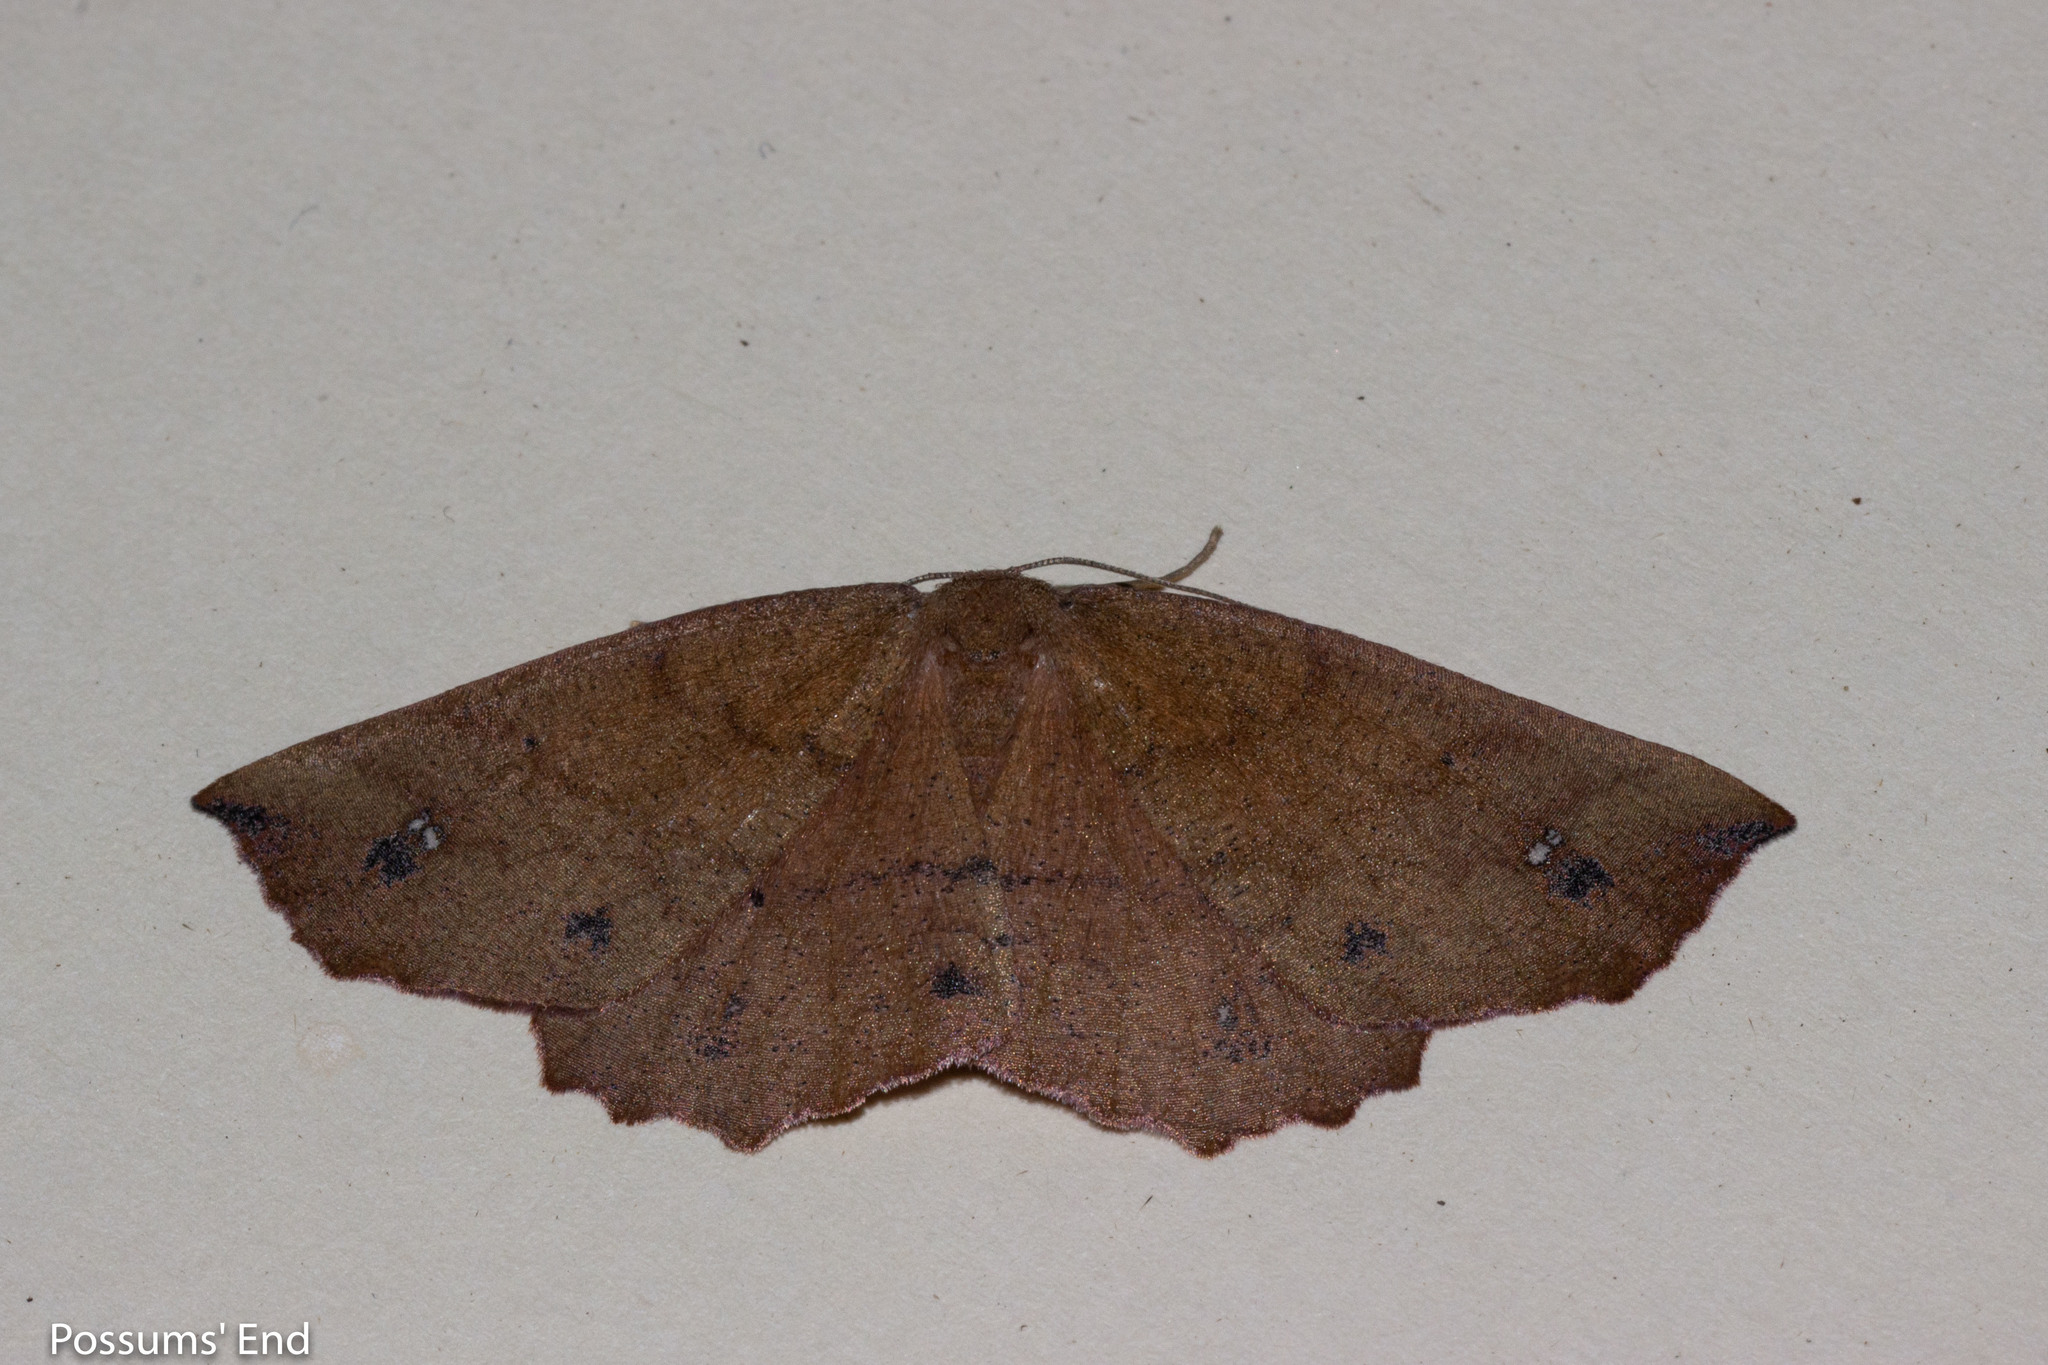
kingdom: Animalia
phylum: Arthropoda
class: Insecta
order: Lepidoptera
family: Geometridae
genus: Xyridacma
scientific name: Xyridacma ustaria
